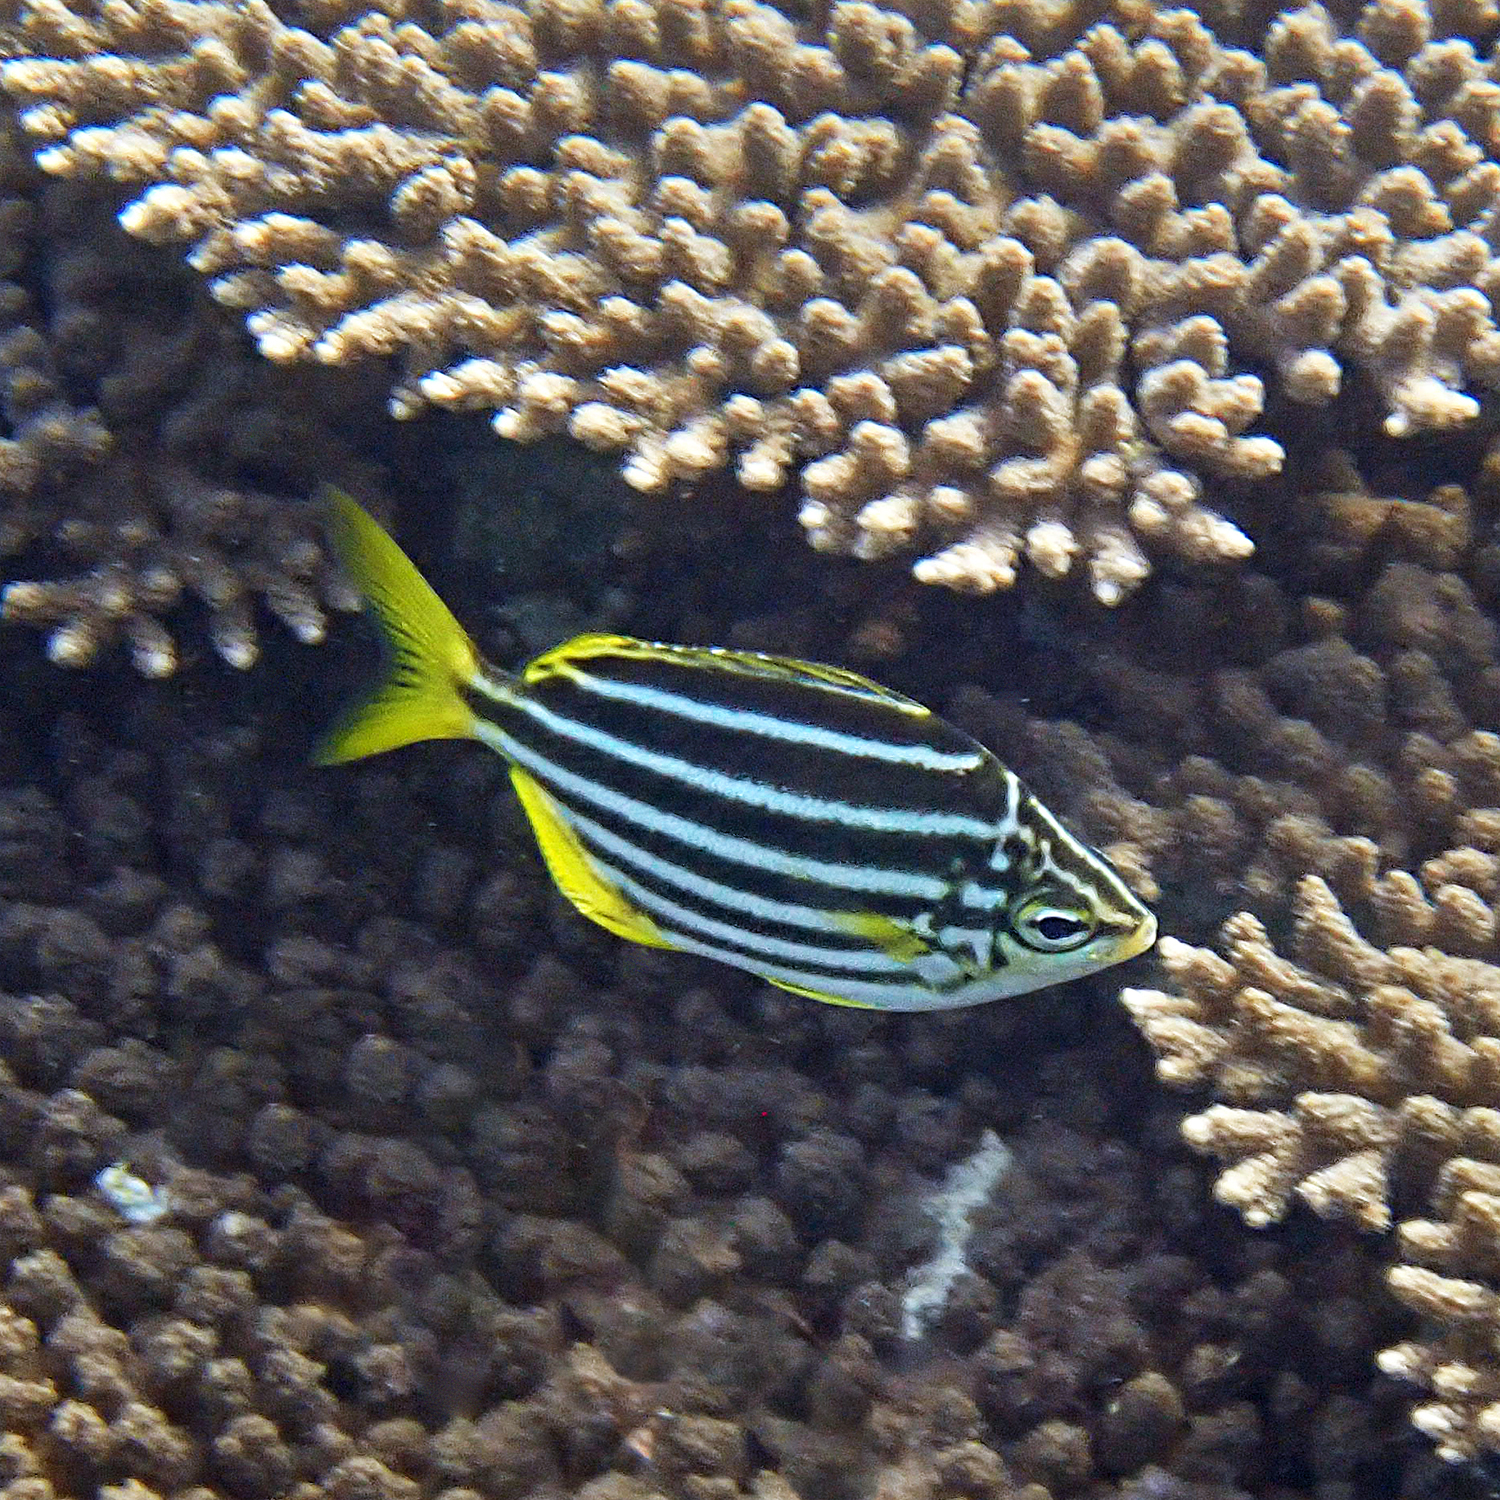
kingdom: Animalia
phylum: Chordata
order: Perciformes
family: Kyphosidae
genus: Atypichthys
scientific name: Atypichthys latus
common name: Mado
